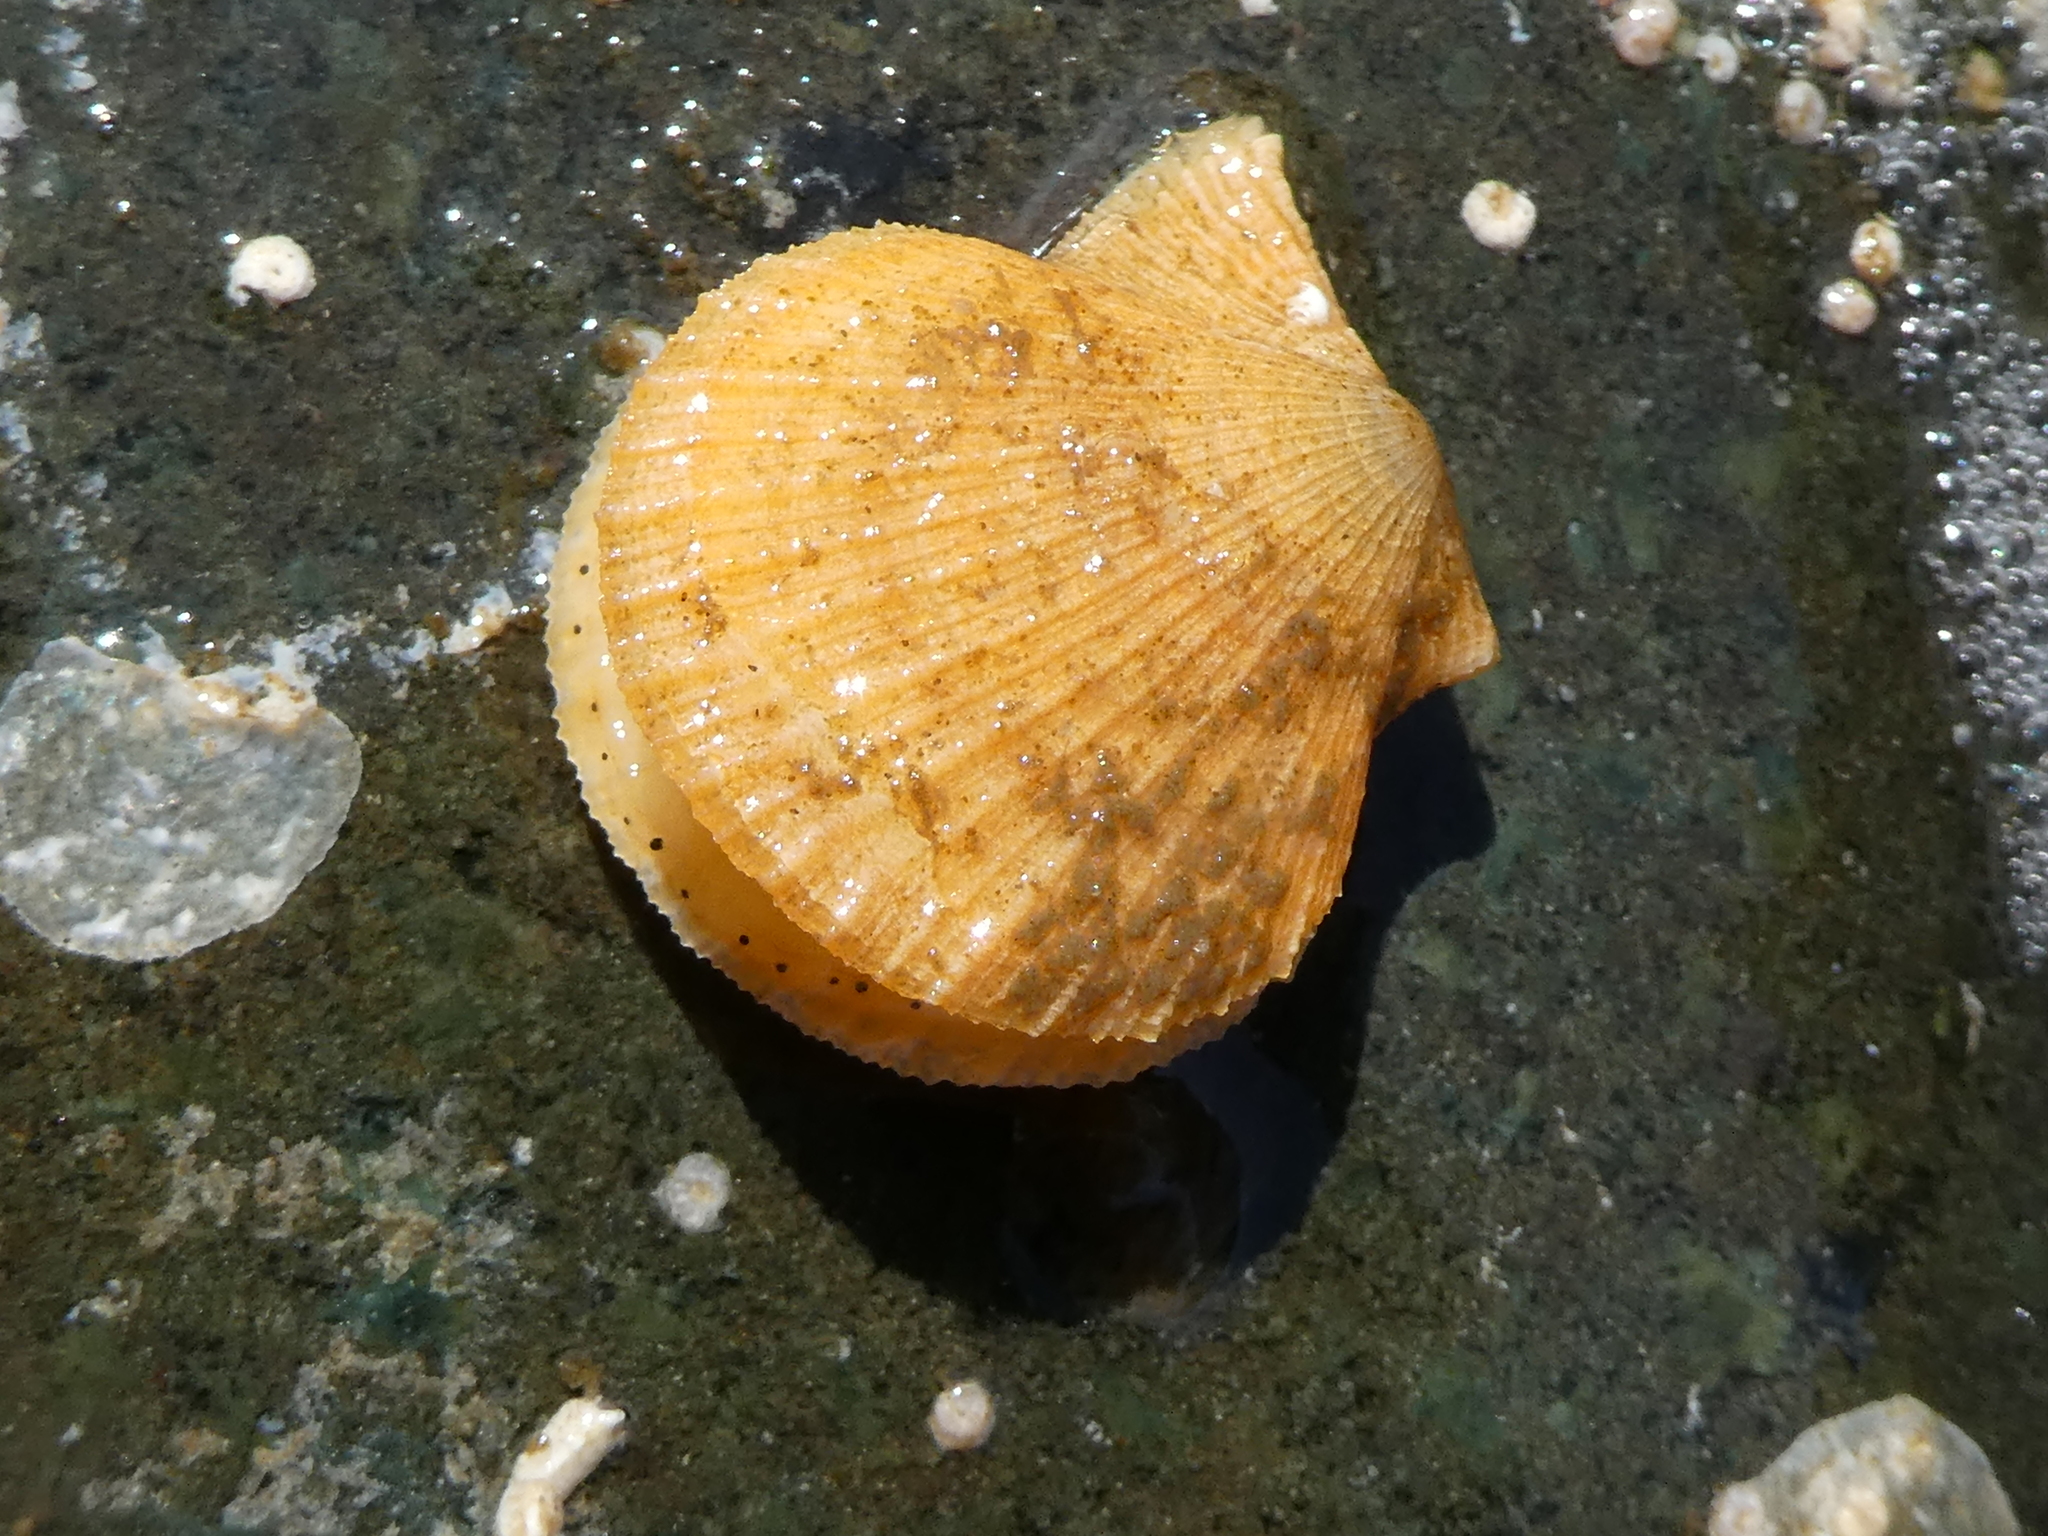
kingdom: Animalia
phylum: Mollusca
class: Bivalvia
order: Pectinida
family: Pectinidae
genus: Crassadoma
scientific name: Crassadoma gigantea
